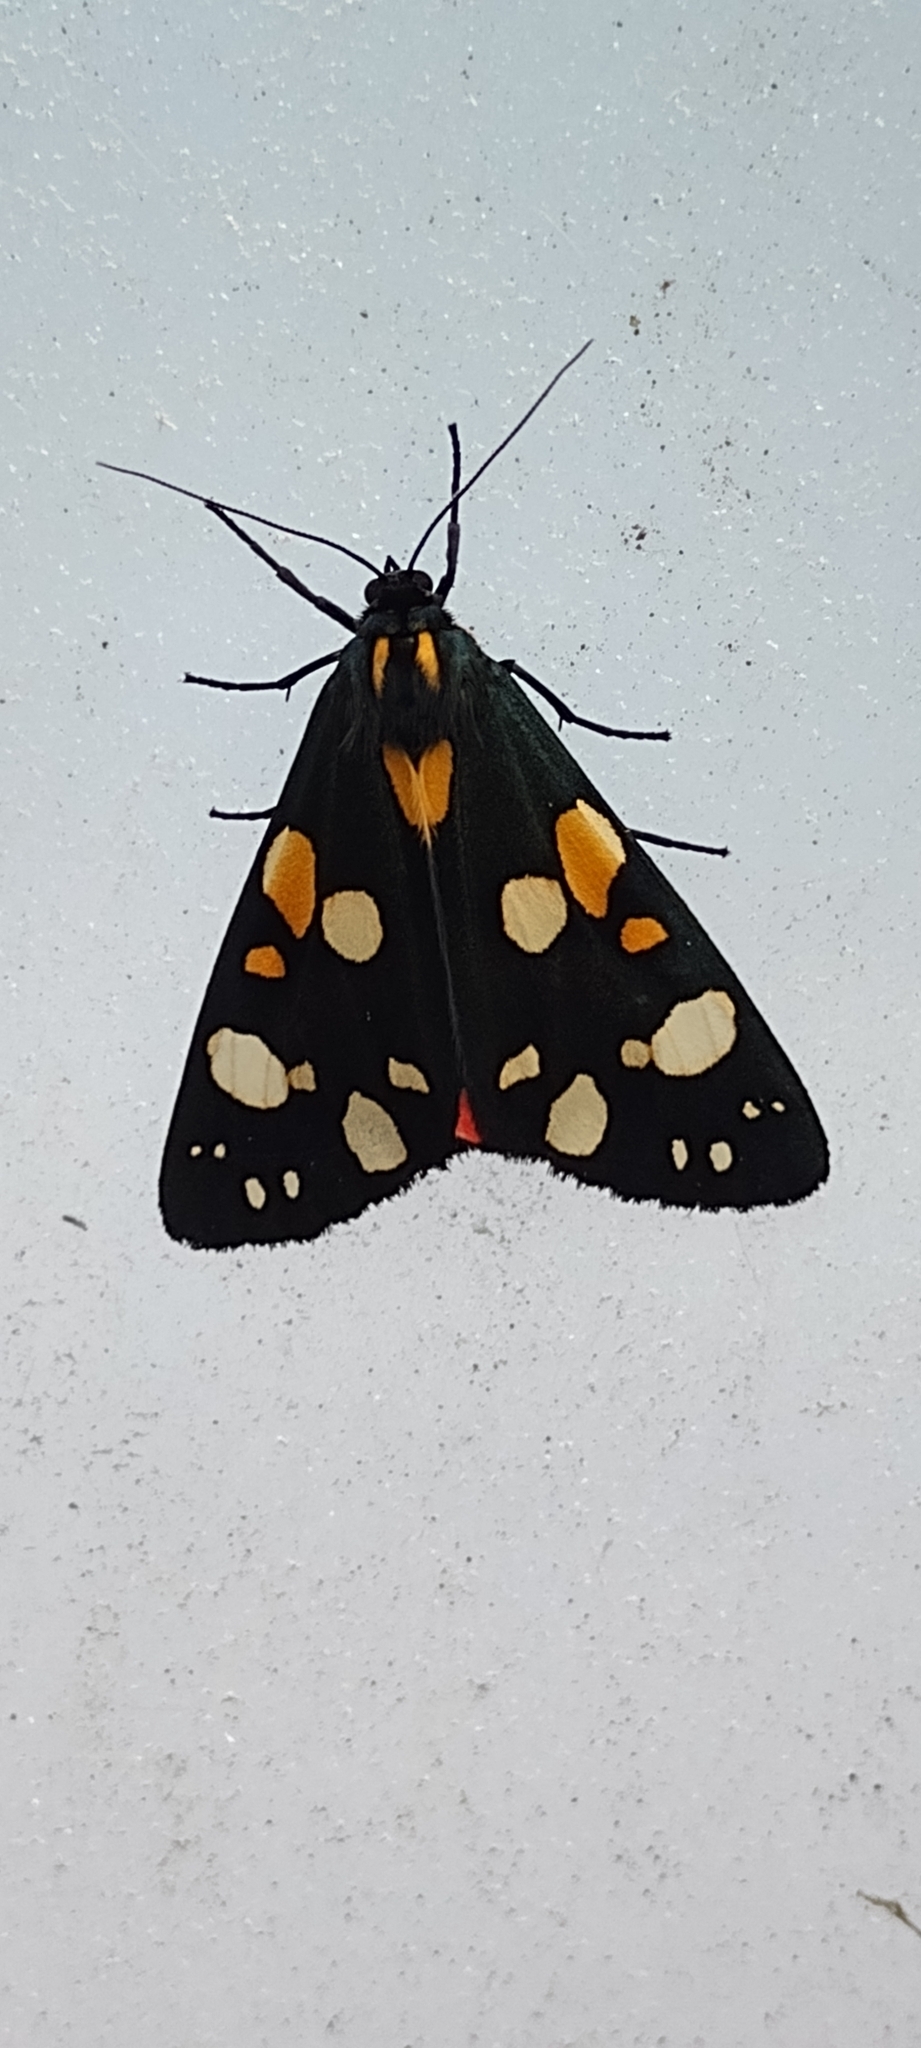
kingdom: Animalia
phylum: Arthropoda
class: Insecta
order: Lepidoptera
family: Erebidae
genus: Callimorpha
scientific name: Callimorpha dominula
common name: Scarlet tiger
